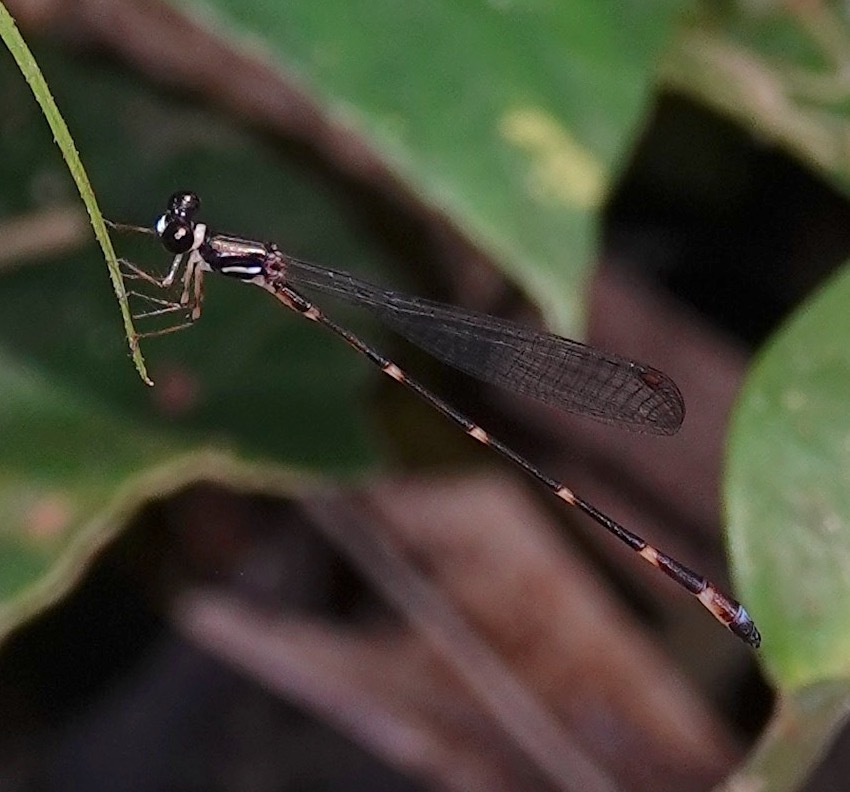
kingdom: Animalia
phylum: Arthropoda
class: Insecta
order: Odonata
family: Platystictidae
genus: Drepanosticta
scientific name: Drepanosticta gazella
